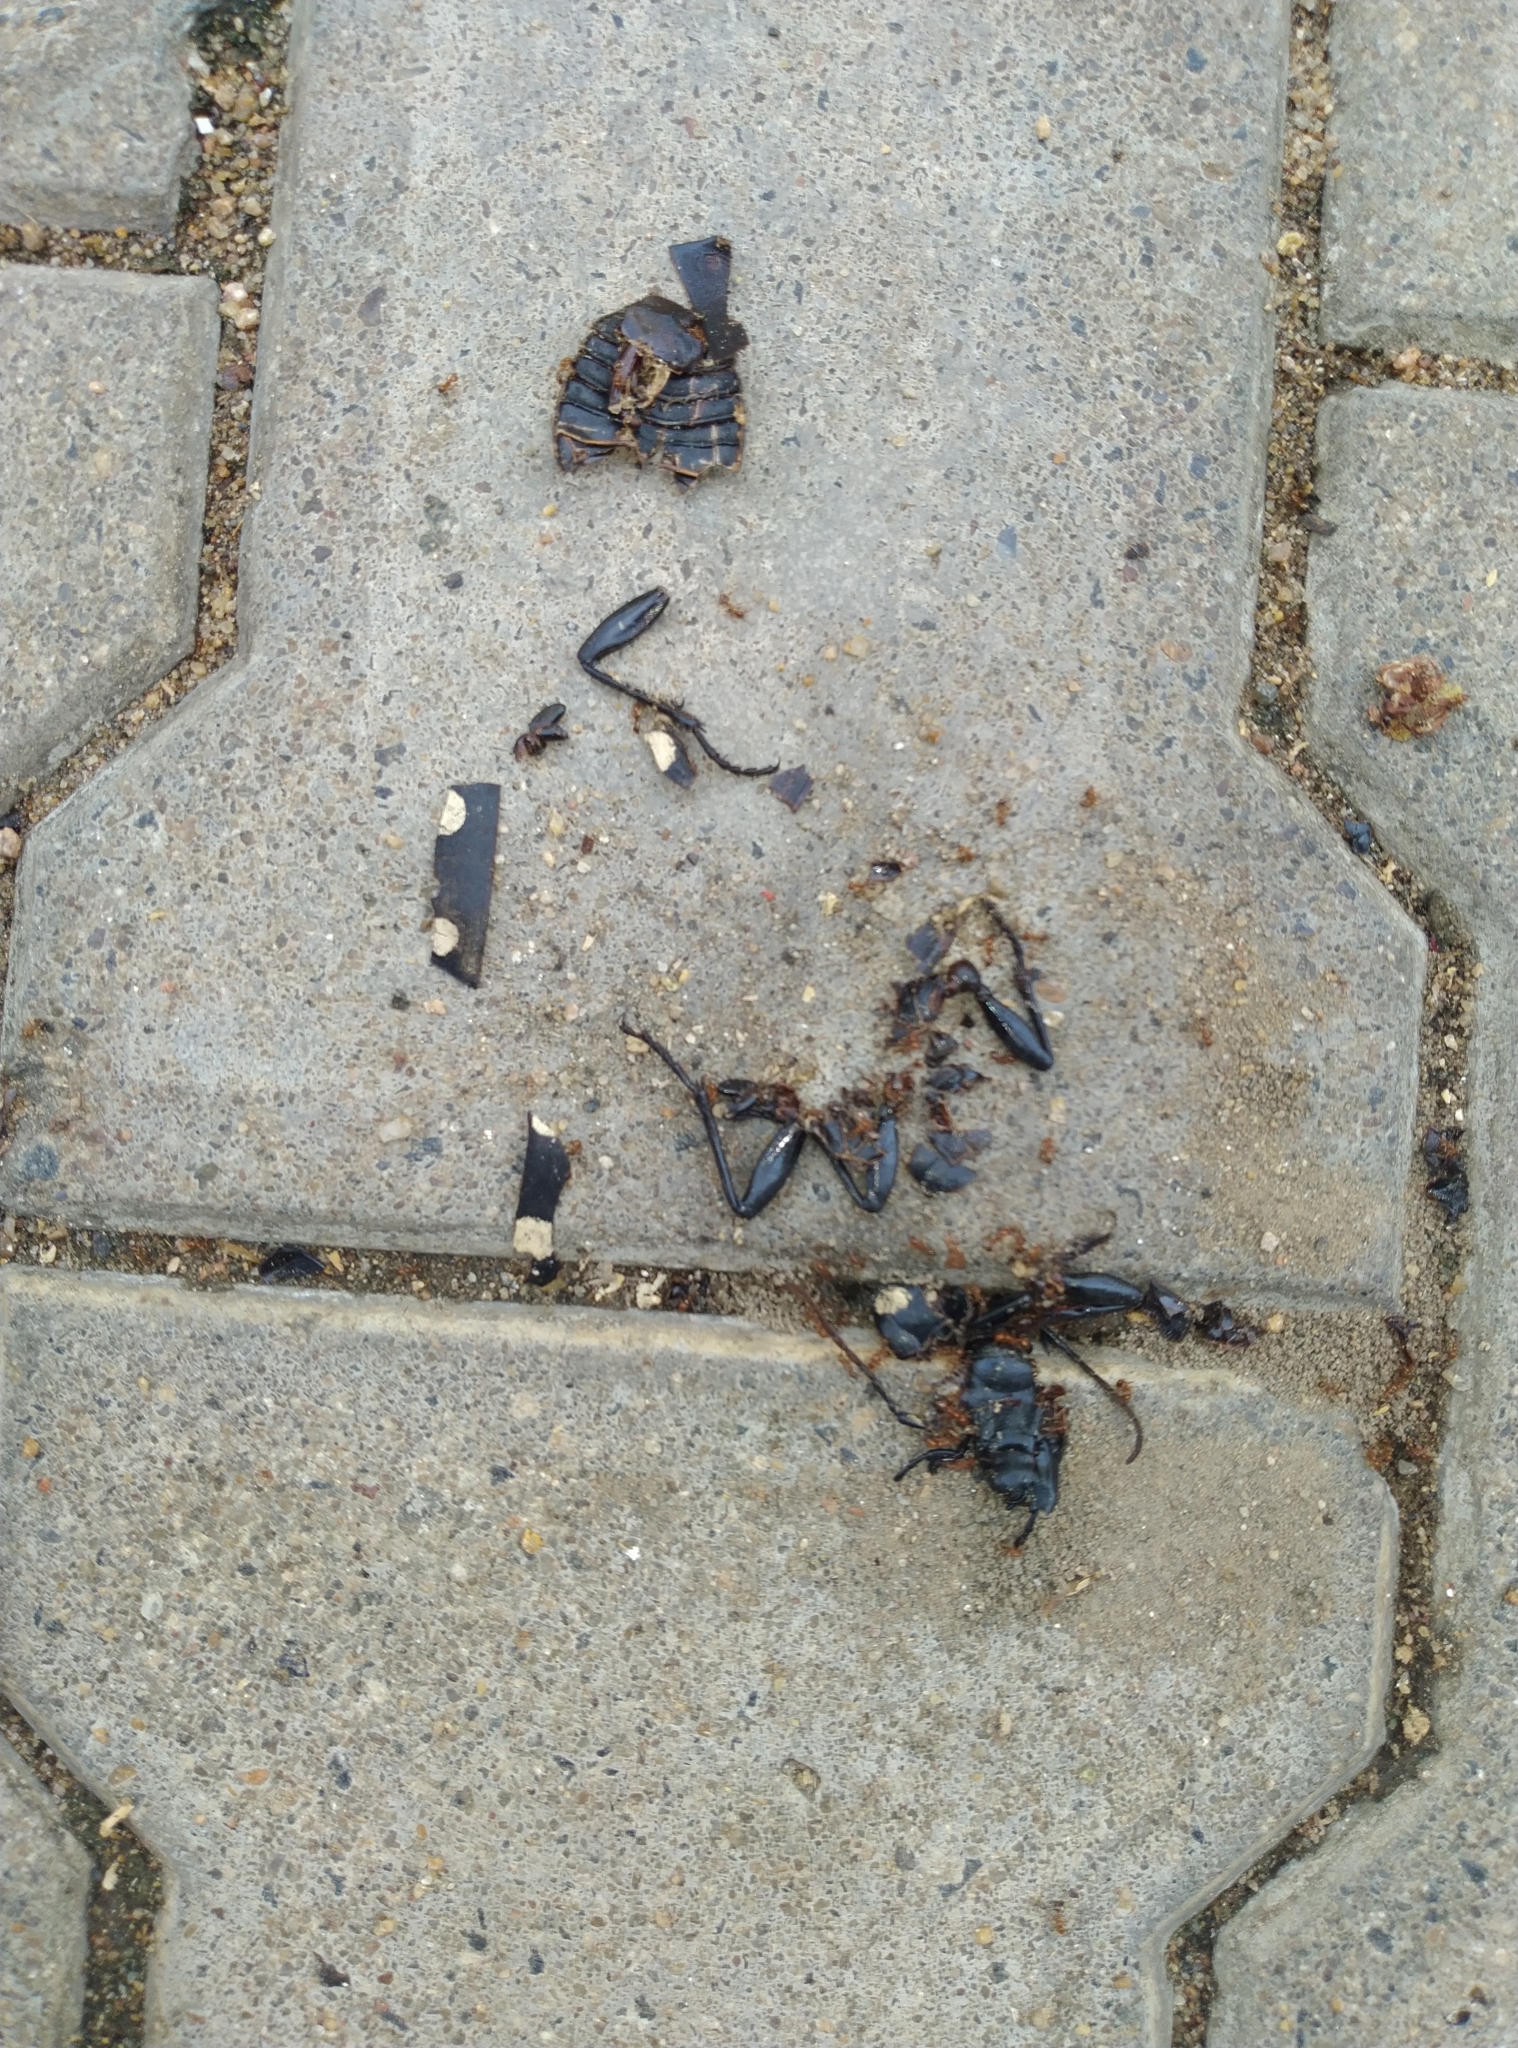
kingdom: Animalia
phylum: Arthropoda
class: Insecta
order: Coleoptera
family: Carabidae
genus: Anthia
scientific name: Anthia sexguttata
